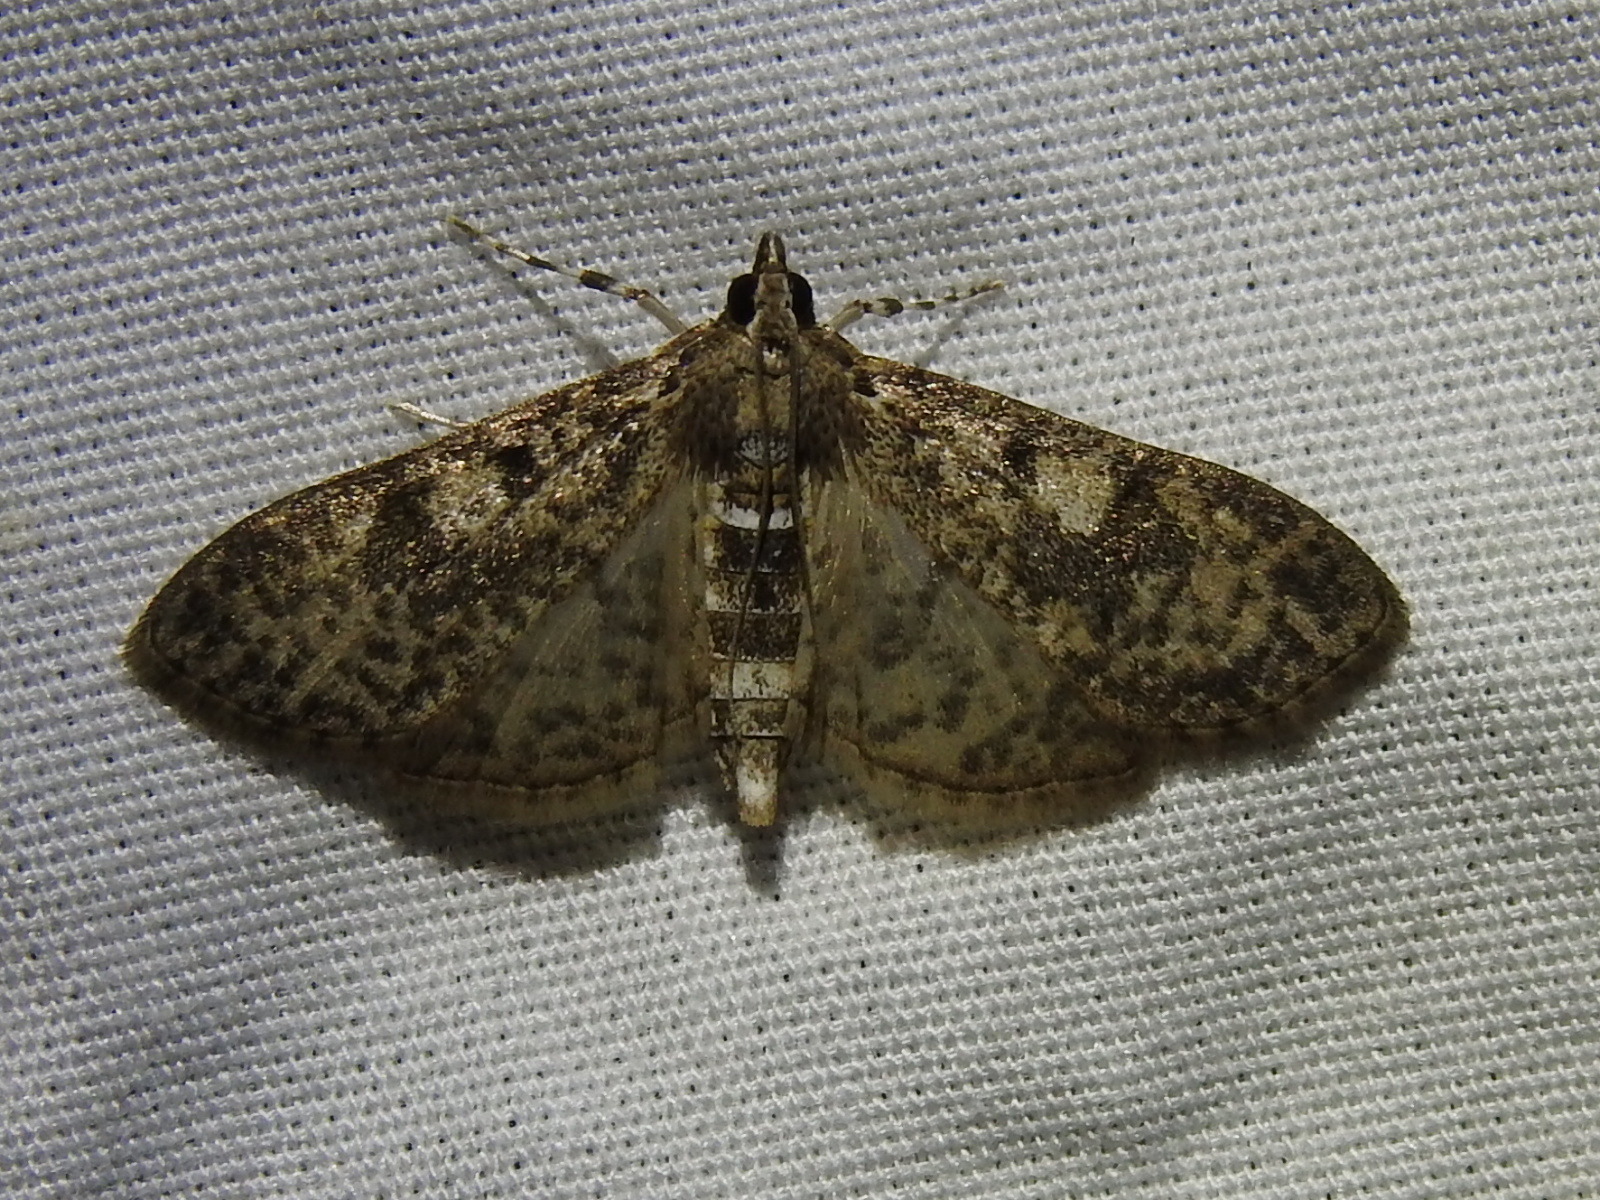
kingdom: Animalia
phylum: Arthropoda
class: Insecta
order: Lepidoptera
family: Crambidae
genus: Palpita
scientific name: Palpita magniferalis
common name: Splendid palpita moth
